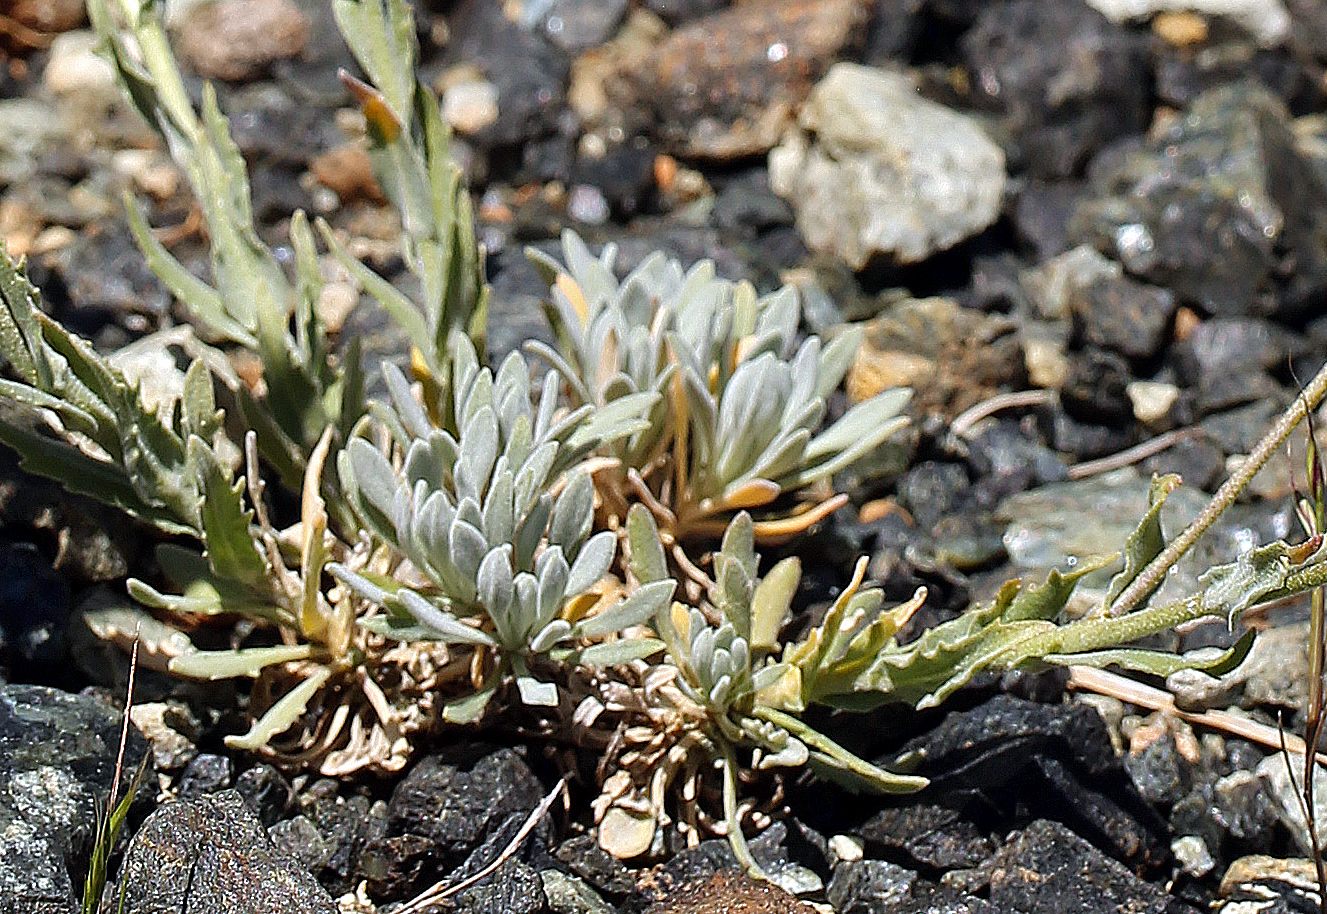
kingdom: Plantae
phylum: Tracheophyta
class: Magnoliopsida
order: Brassicales
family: Brassicaceae
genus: Boechera
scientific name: Boechera serpenticola
